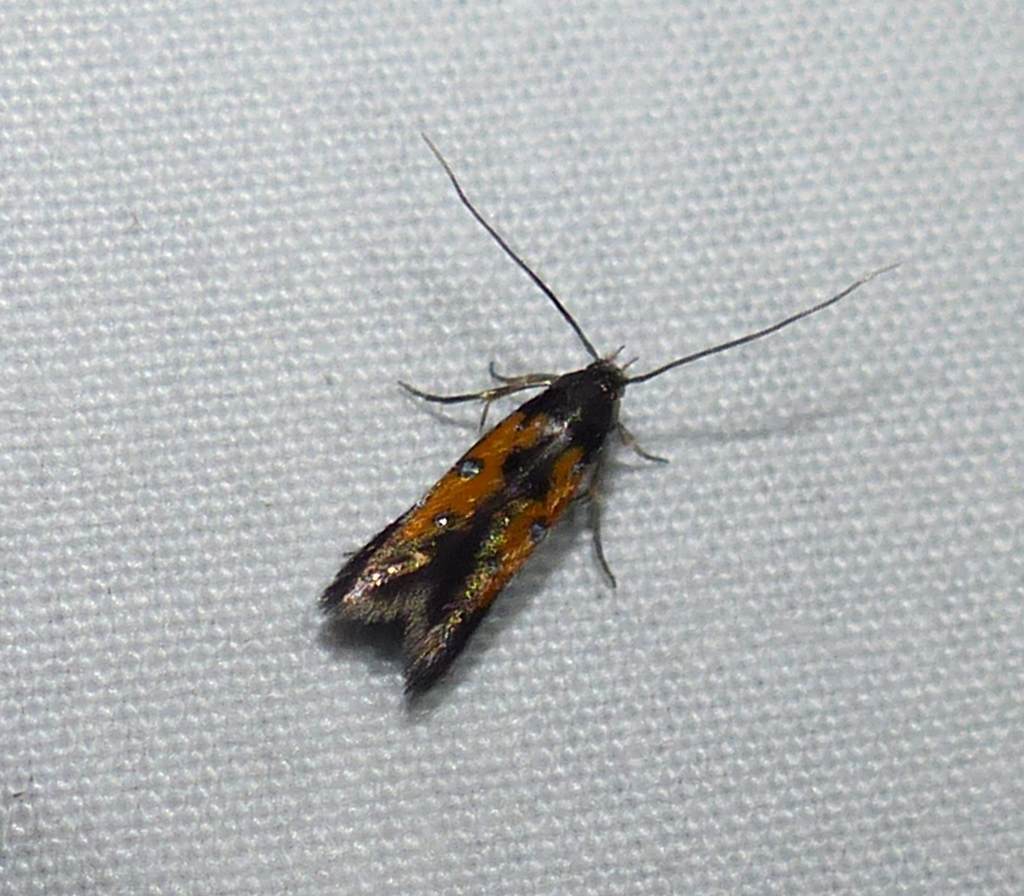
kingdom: Animalia
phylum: Arthropoda
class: Insecta
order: Lepidoptera
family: Elachistidae
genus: Chrysoclista
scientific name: Chrysoclista linneela
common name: Lime cosmet
